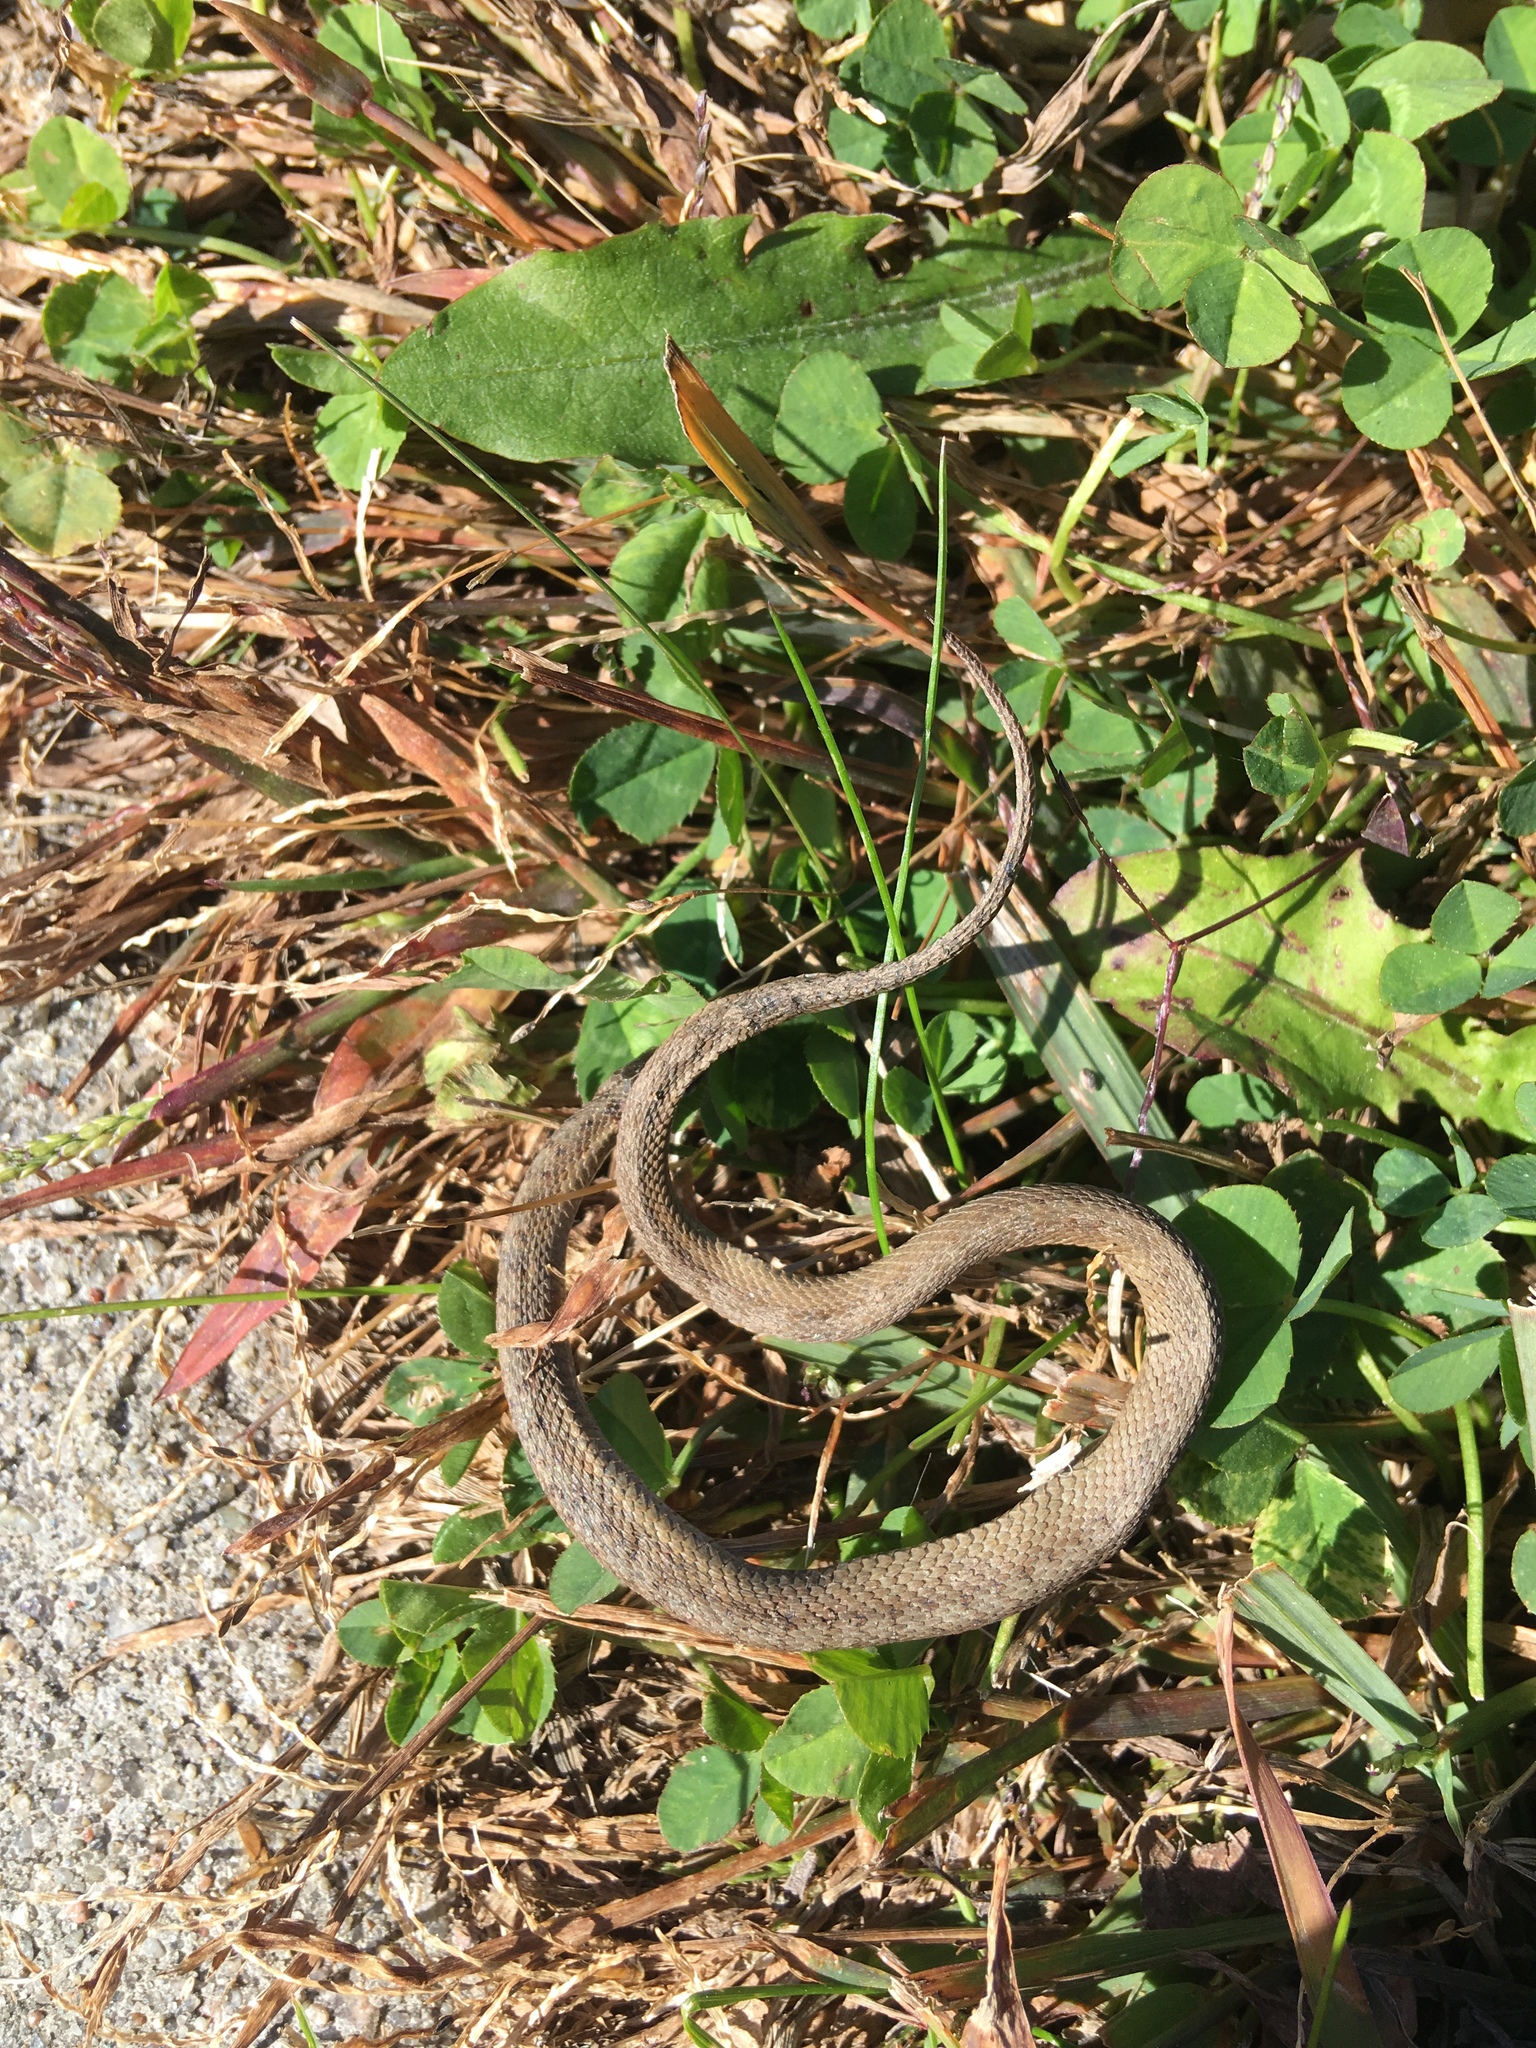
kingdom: Animalia
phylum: Chordata
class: Squamata
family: Colubridae
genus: Storeria
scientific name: Storeria dekayi
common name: (dekay’s) brown snake
